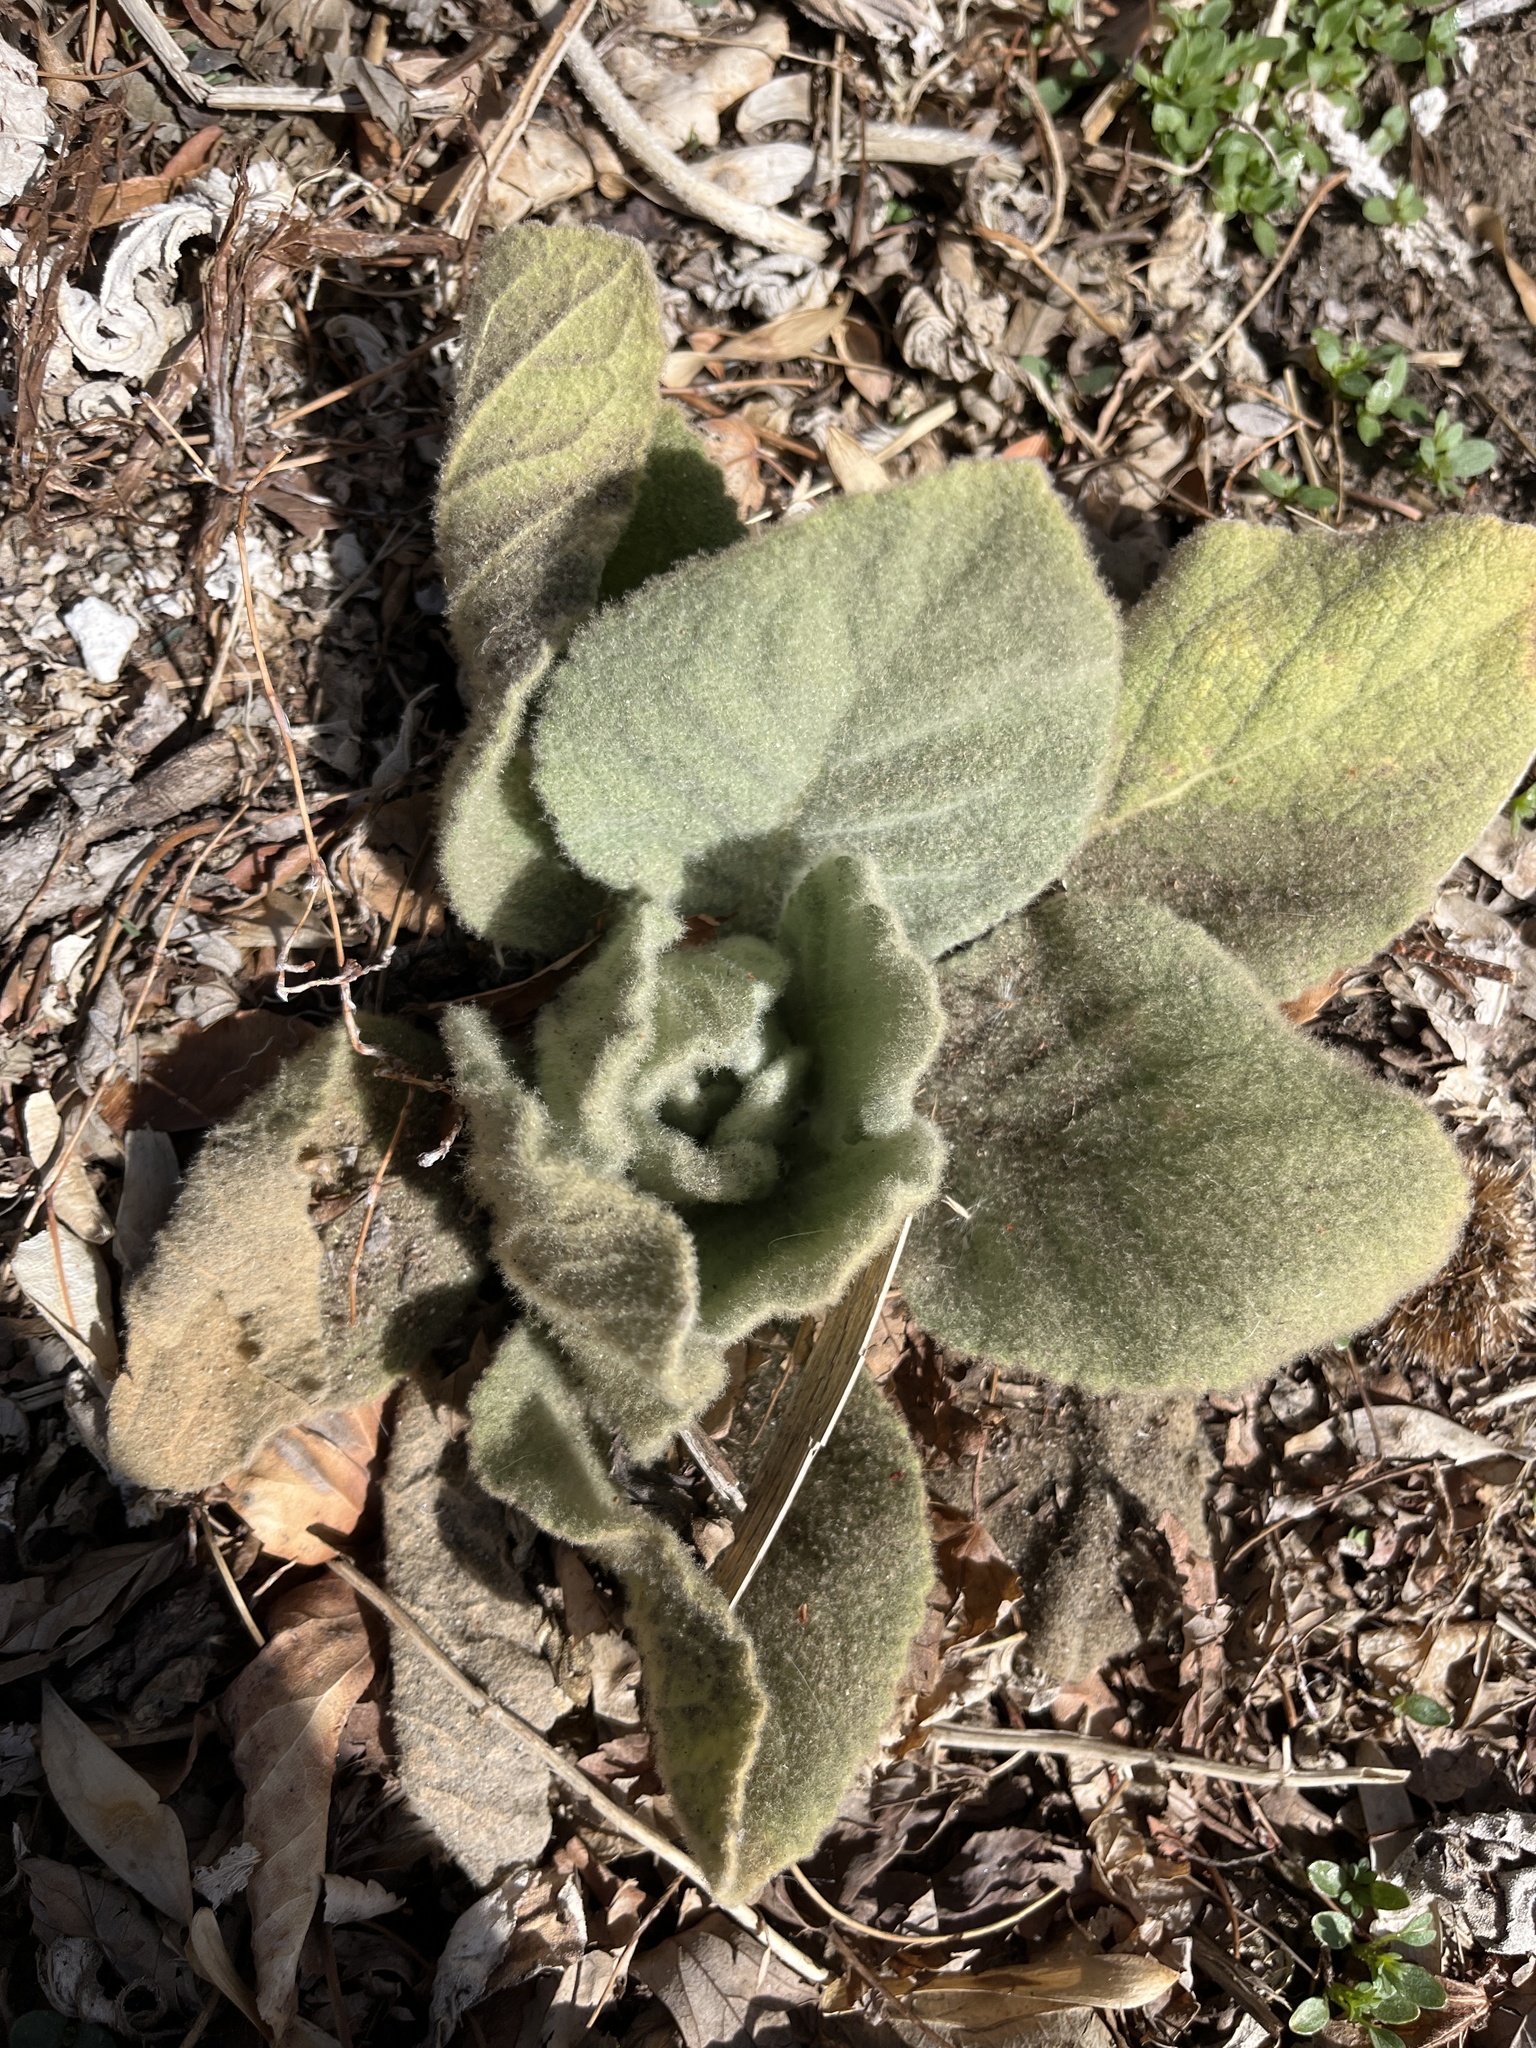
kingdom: Plantae
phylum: Tracheophyta
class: Magnoliopsida
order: Lamiales
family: Scrophulariaceae
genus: Verbascum
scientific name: Verbascum thapsus
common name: Common mullein
